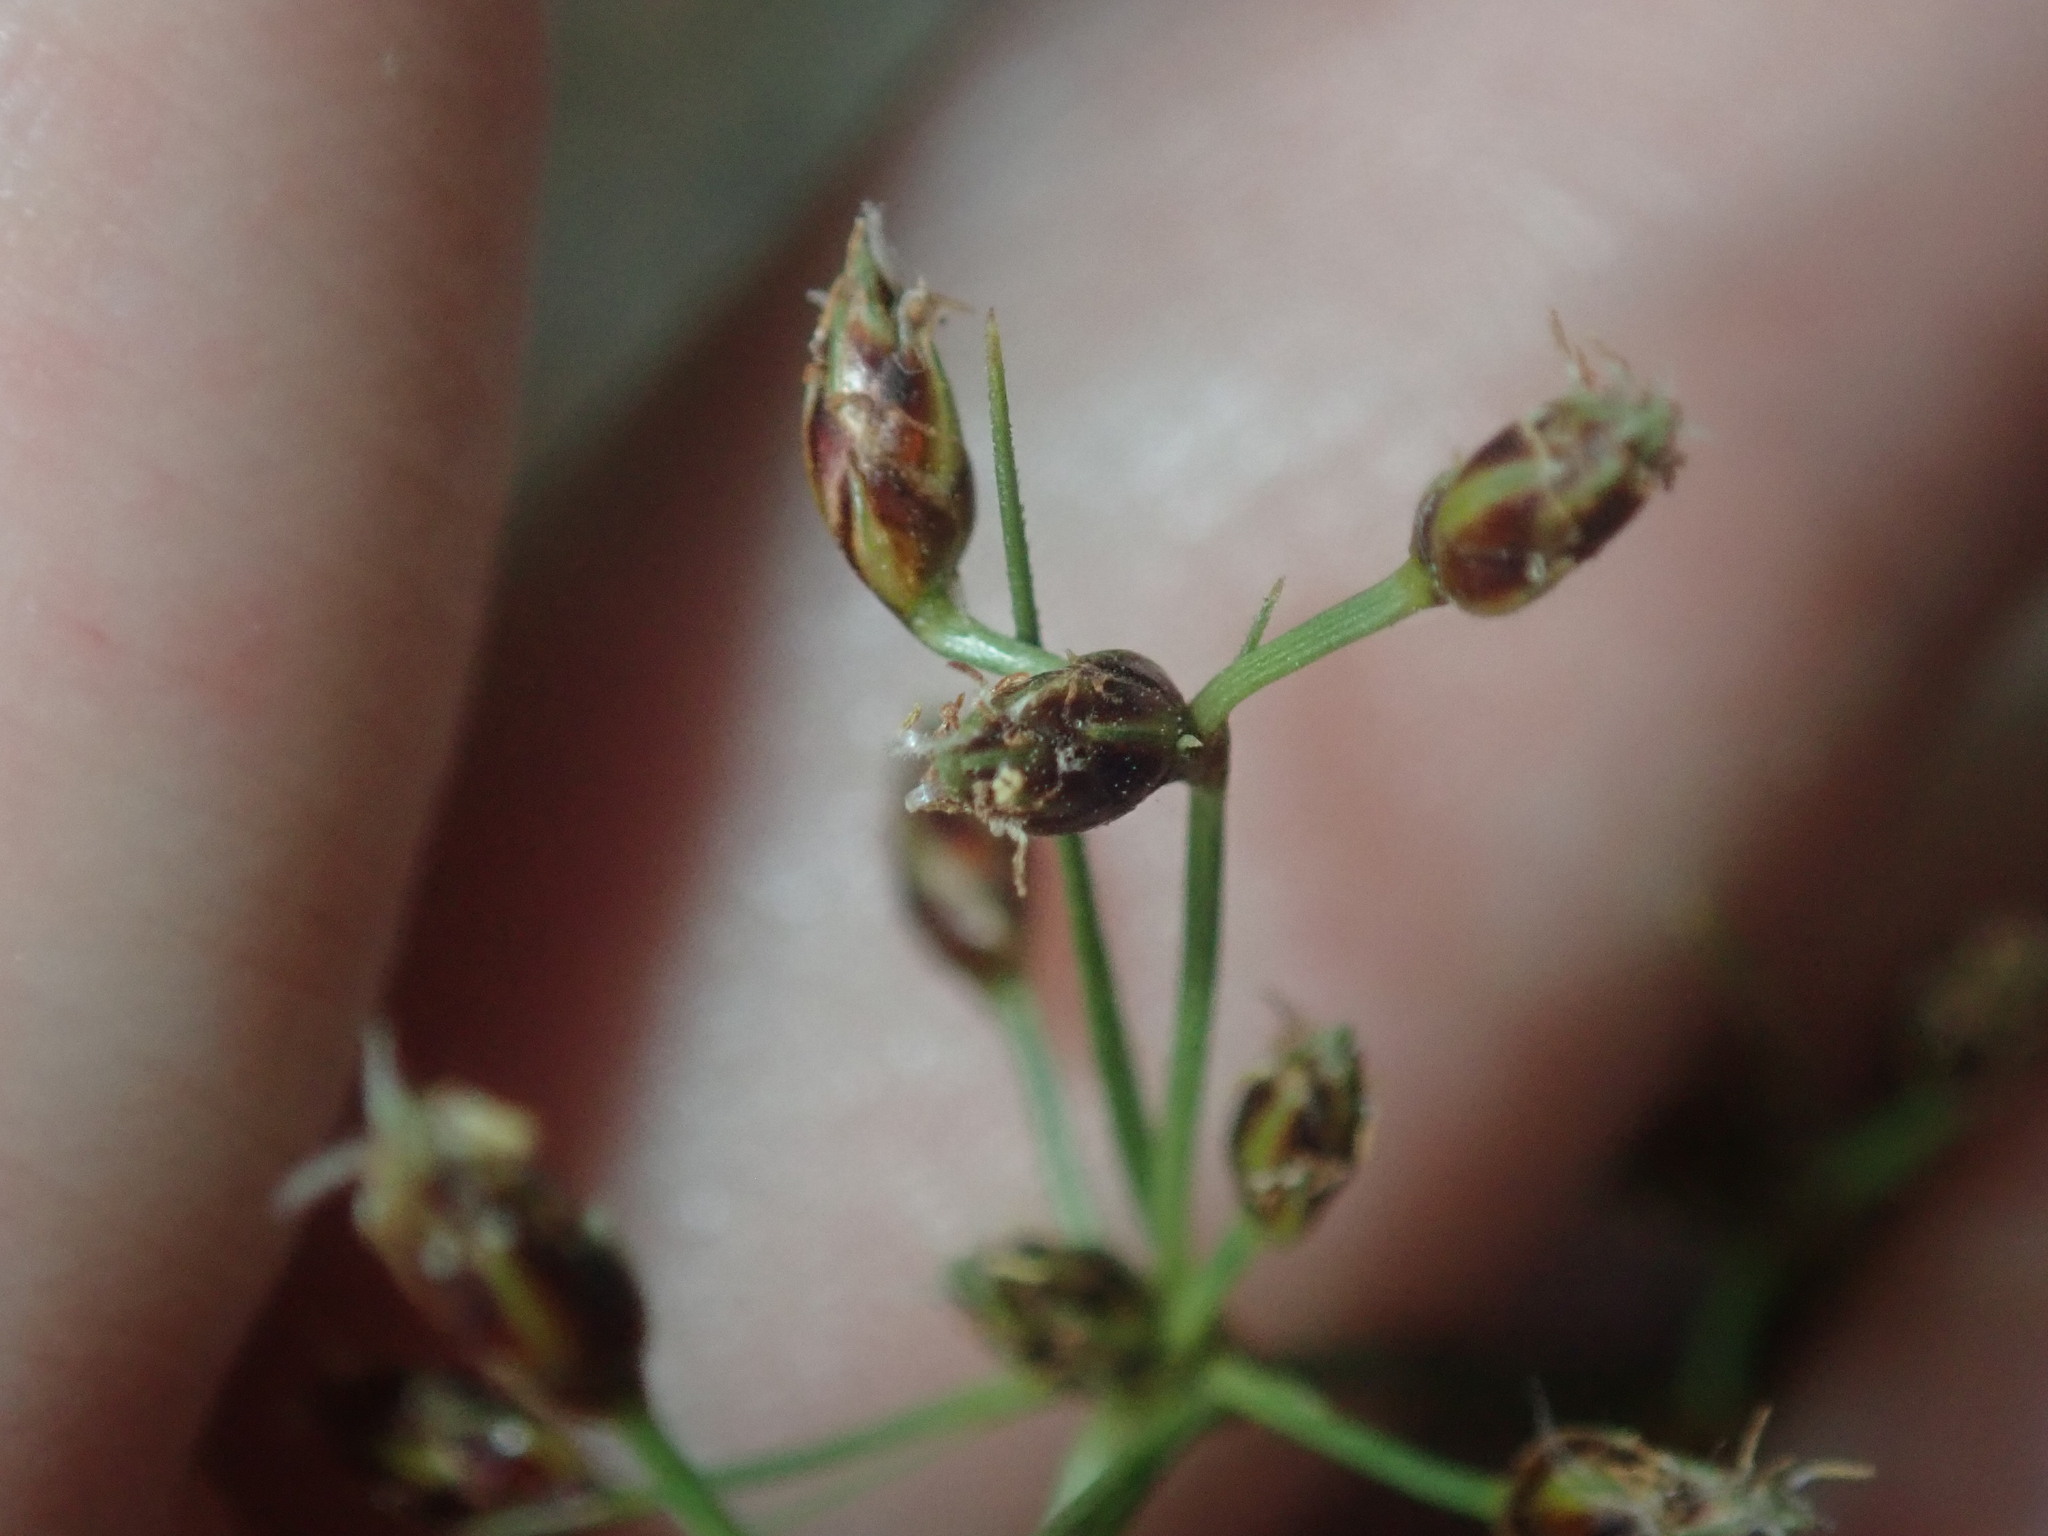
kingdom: Plantae
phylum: Tracheophyta
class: Liliopsida
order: Poales
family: Cyperaceae
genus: Fimbristylis
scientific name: Fimbristylis dichotoma
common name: Forked fimbry
